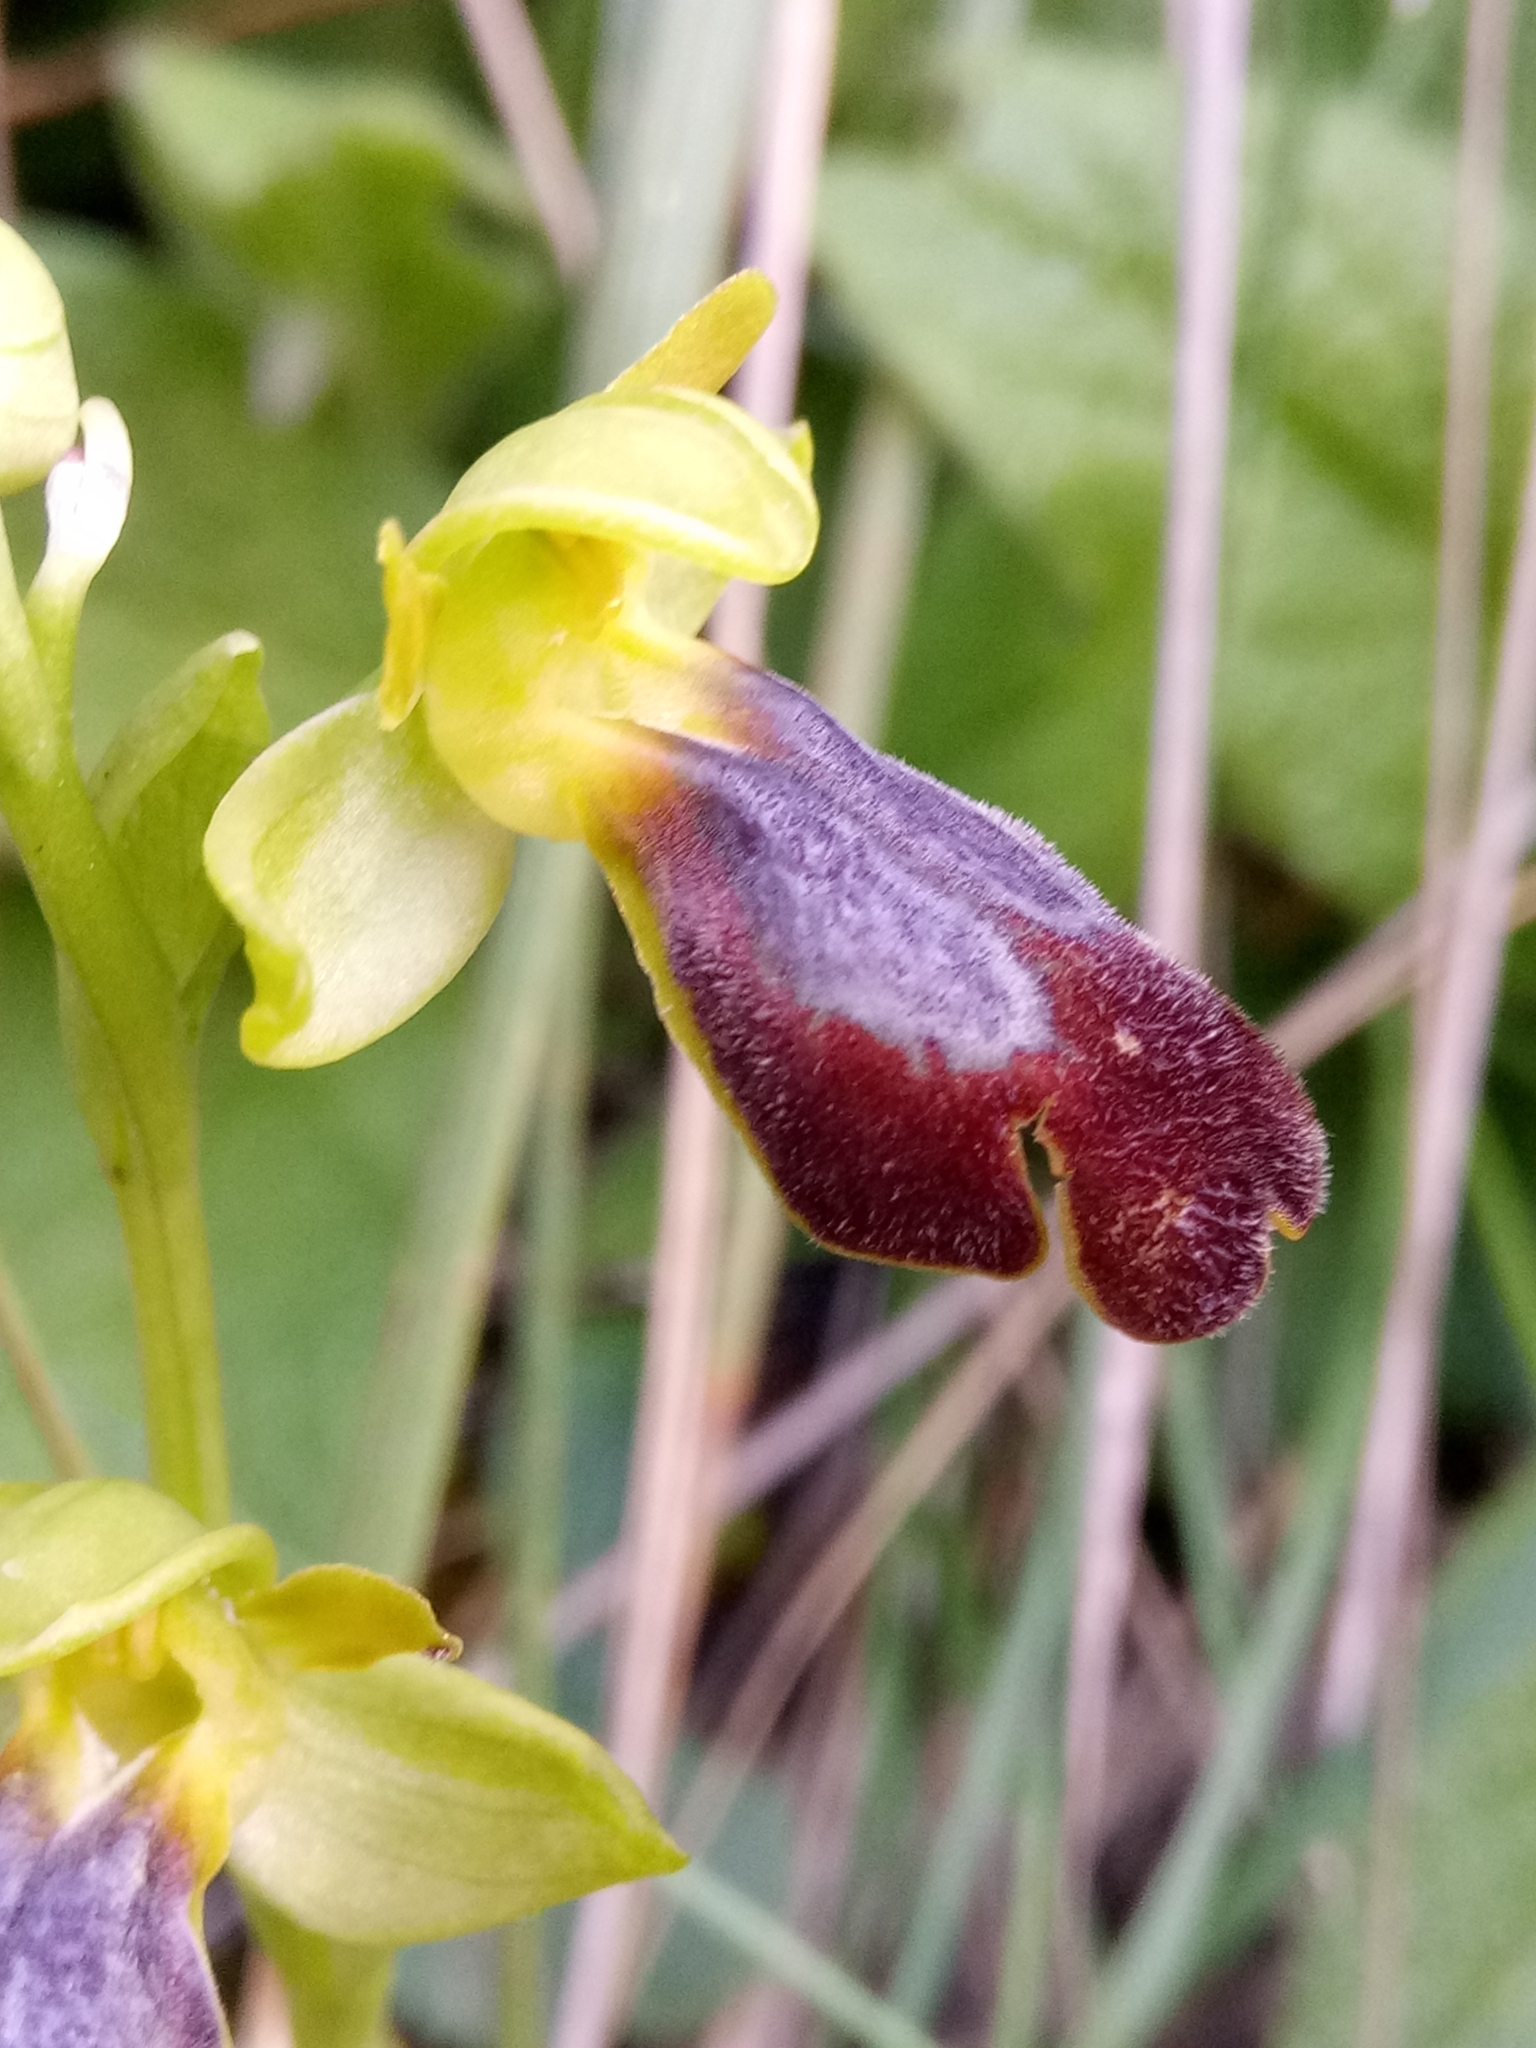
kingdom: Plantae
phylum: Tracheophyta
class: Liliopsida
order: Asparagales
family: Orchidaceae
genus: Ophrys
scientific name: Ophrys fusca
